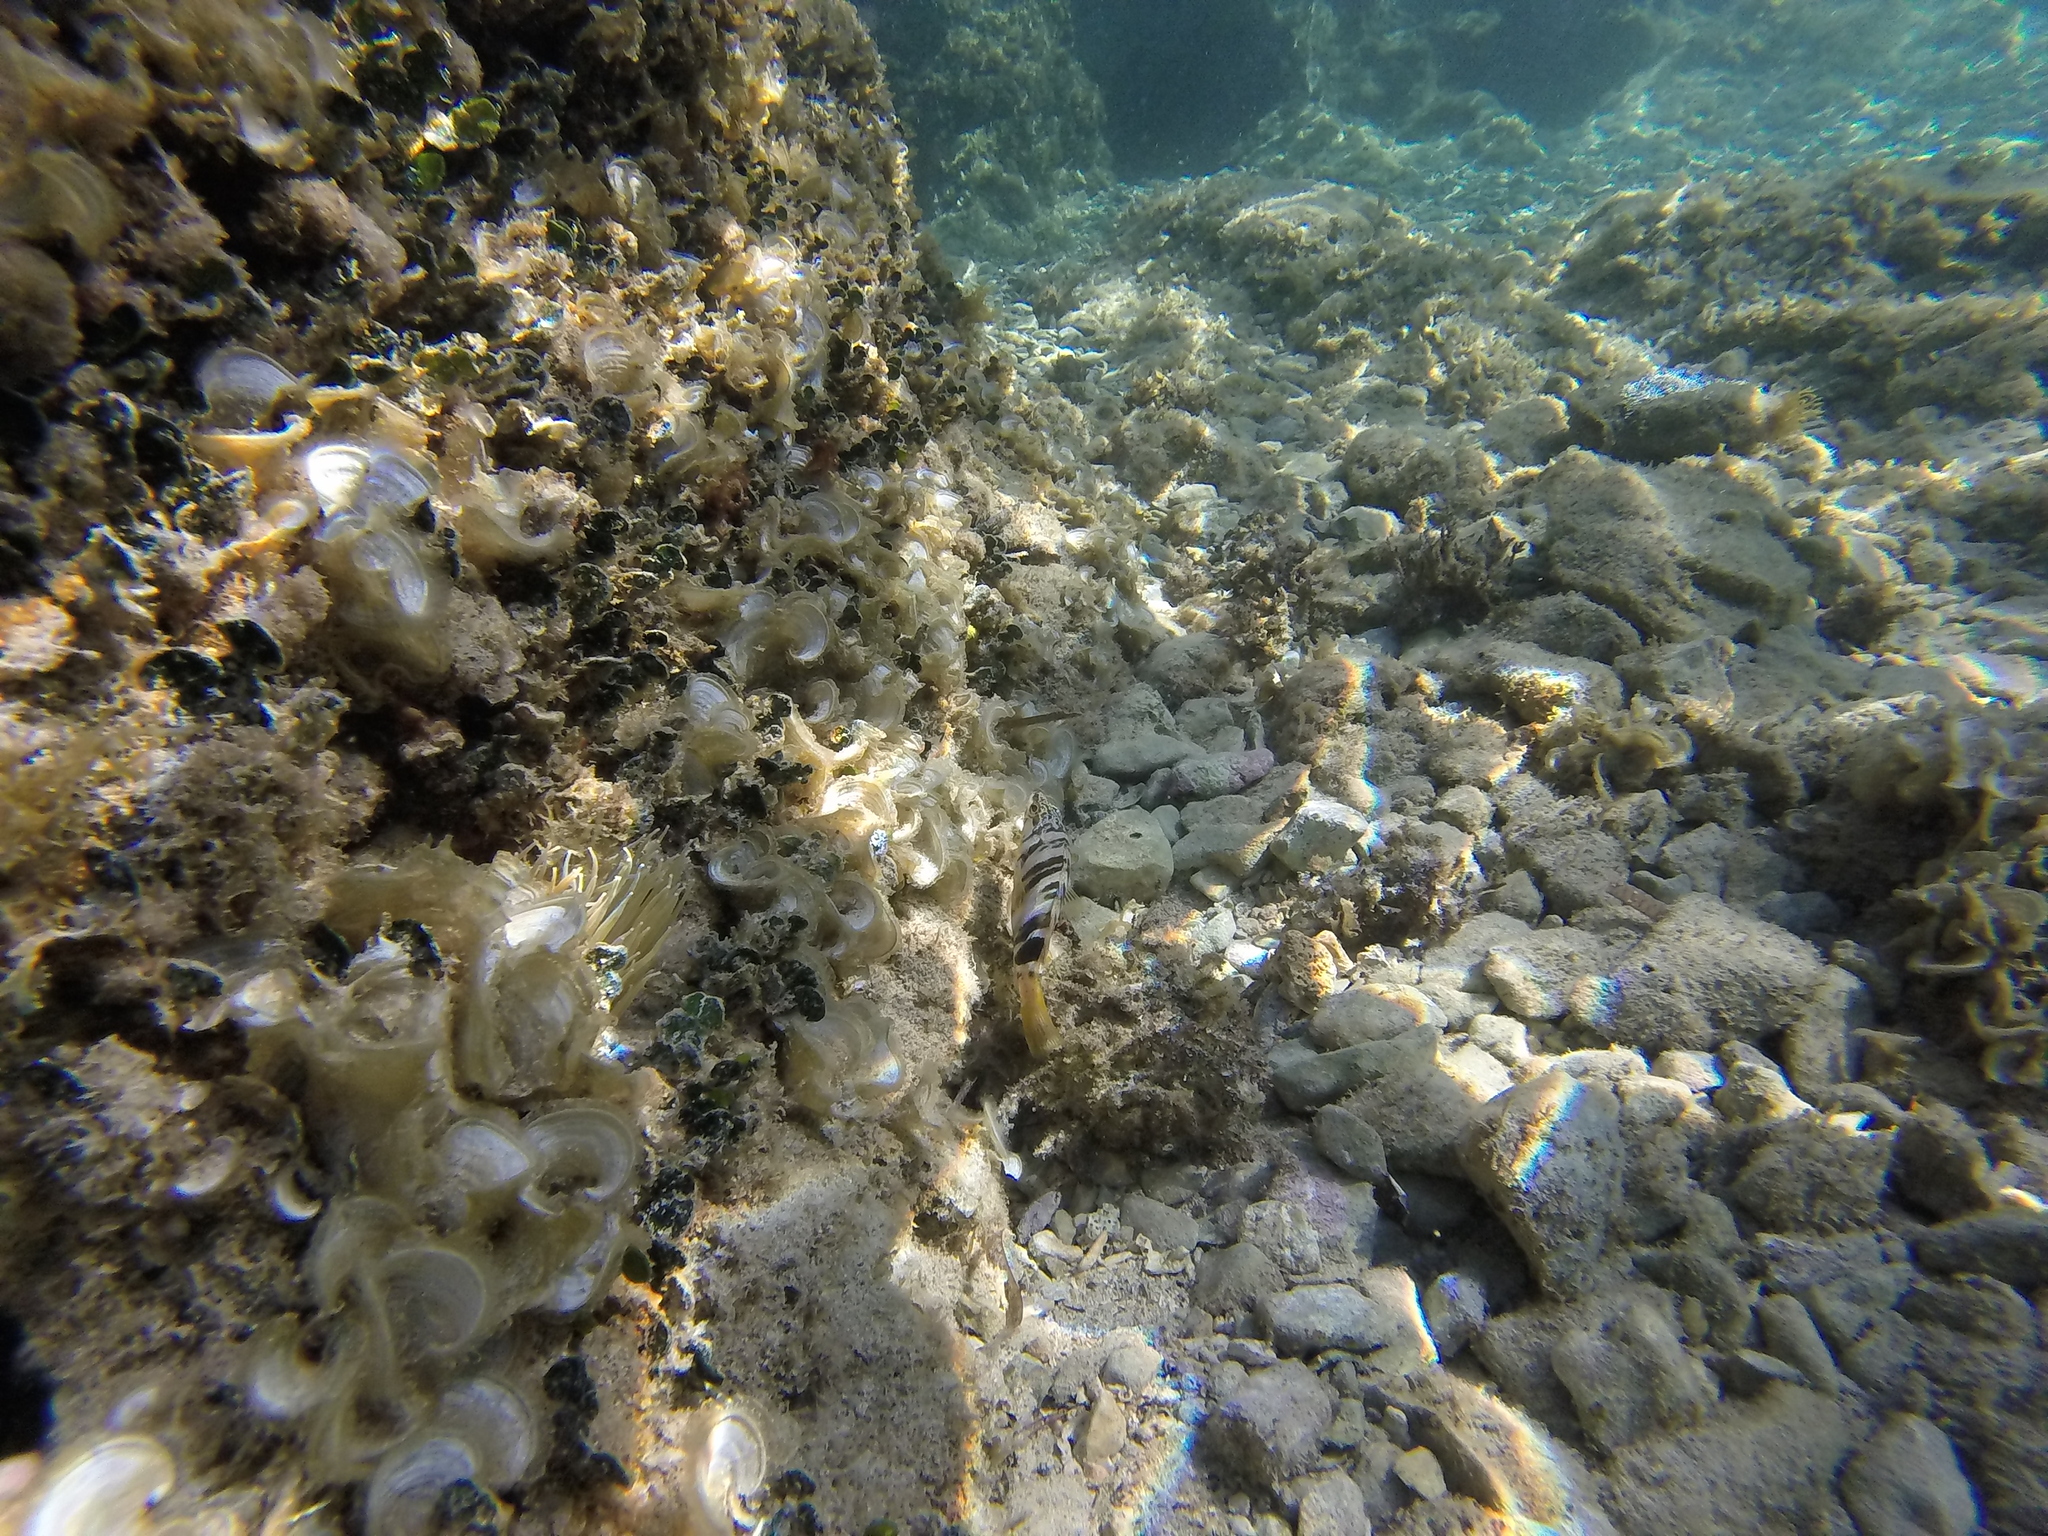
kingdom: Animalia
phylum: Chordata
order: Perciformes
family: Serranidae
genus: Serranus
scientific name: Serranus scriba
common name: Painted comber
